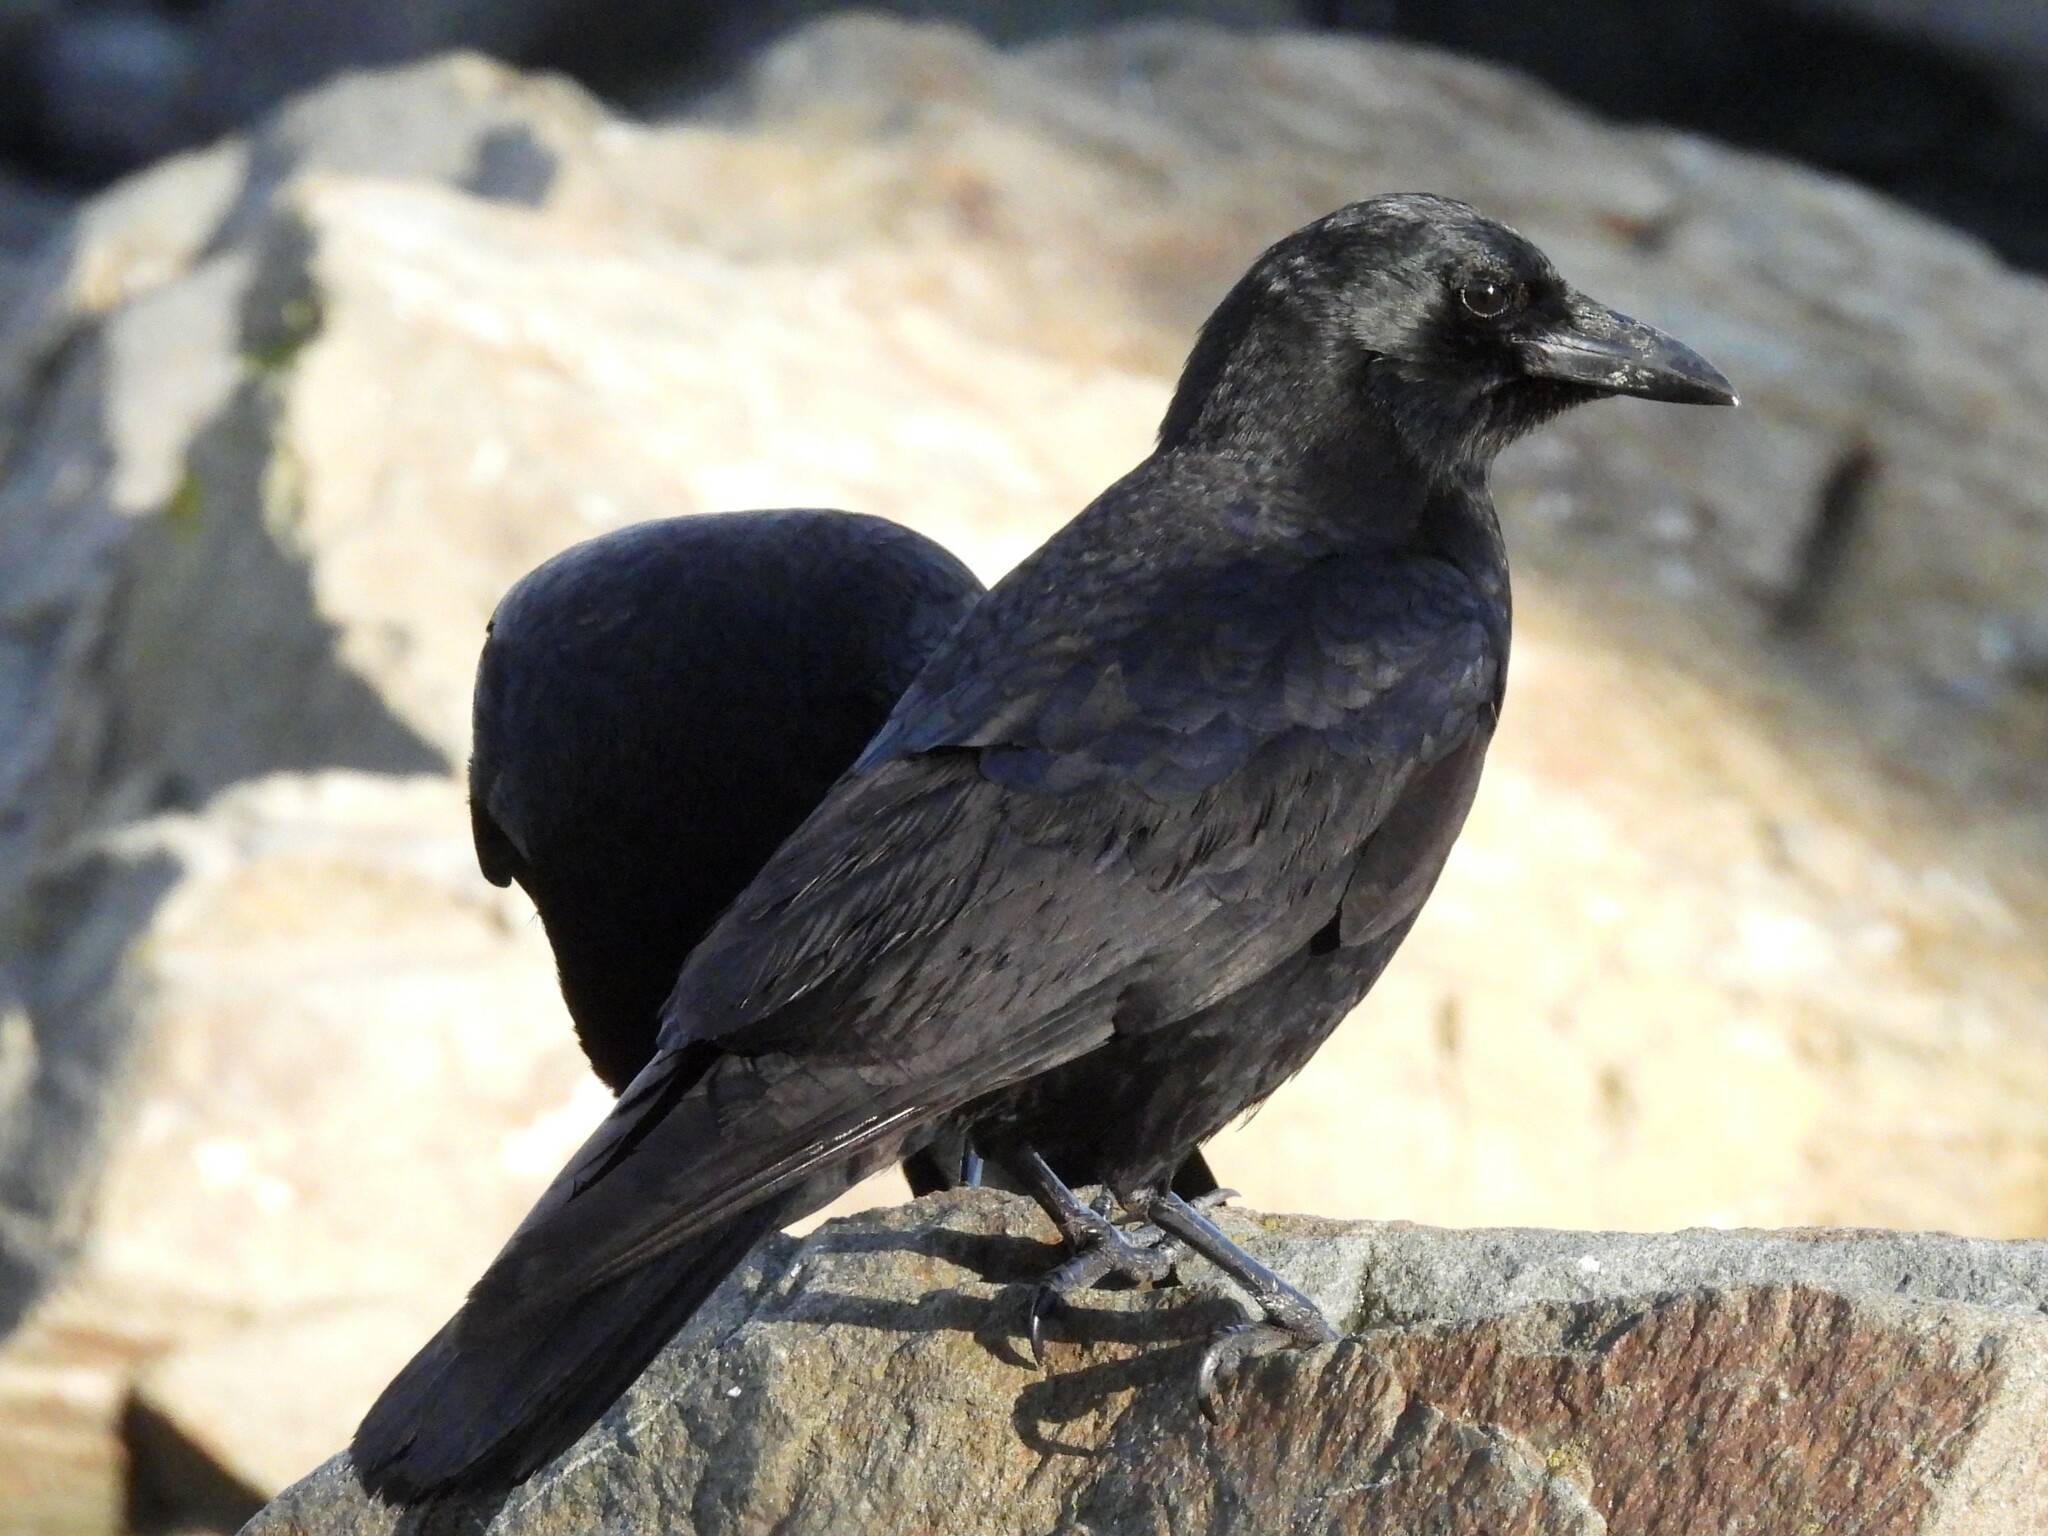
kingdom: Animalia
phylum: Chordata
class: Aves
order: Passeriformes
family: Corvidae
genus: Corvus
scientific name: Corvus brachyrhynchos
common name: American crow
